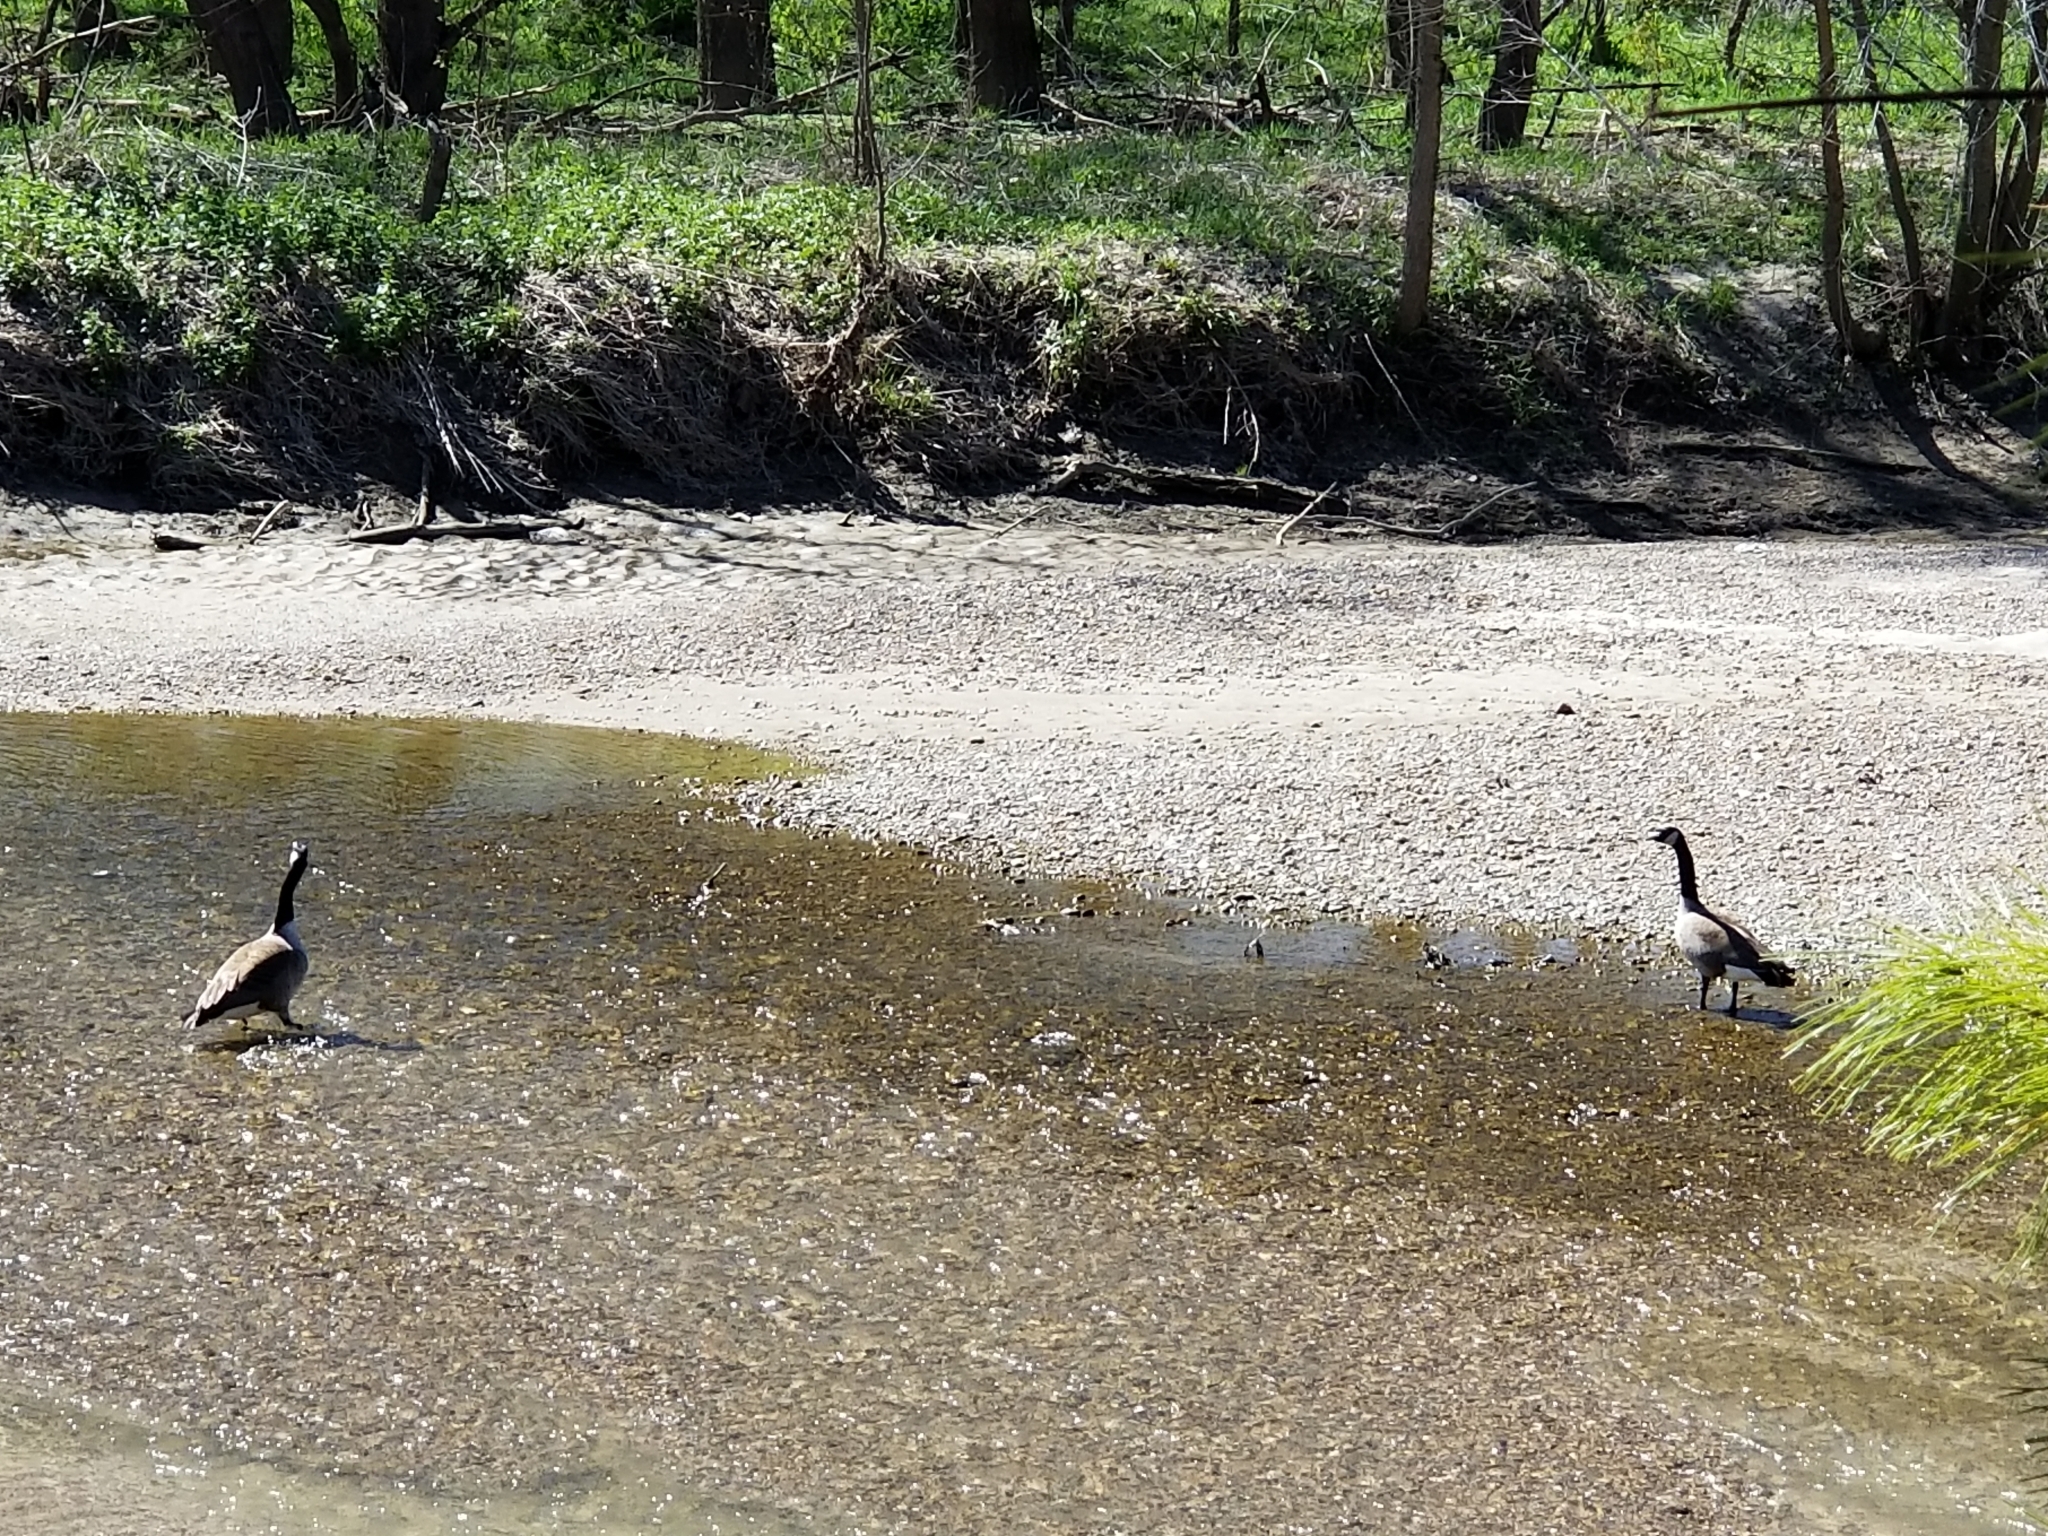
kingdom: Animalia
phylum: Chordata
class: Aves
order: Anseriformes
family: Anatidae
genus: Branta
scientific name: Branta canadensis
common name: Canada goose
